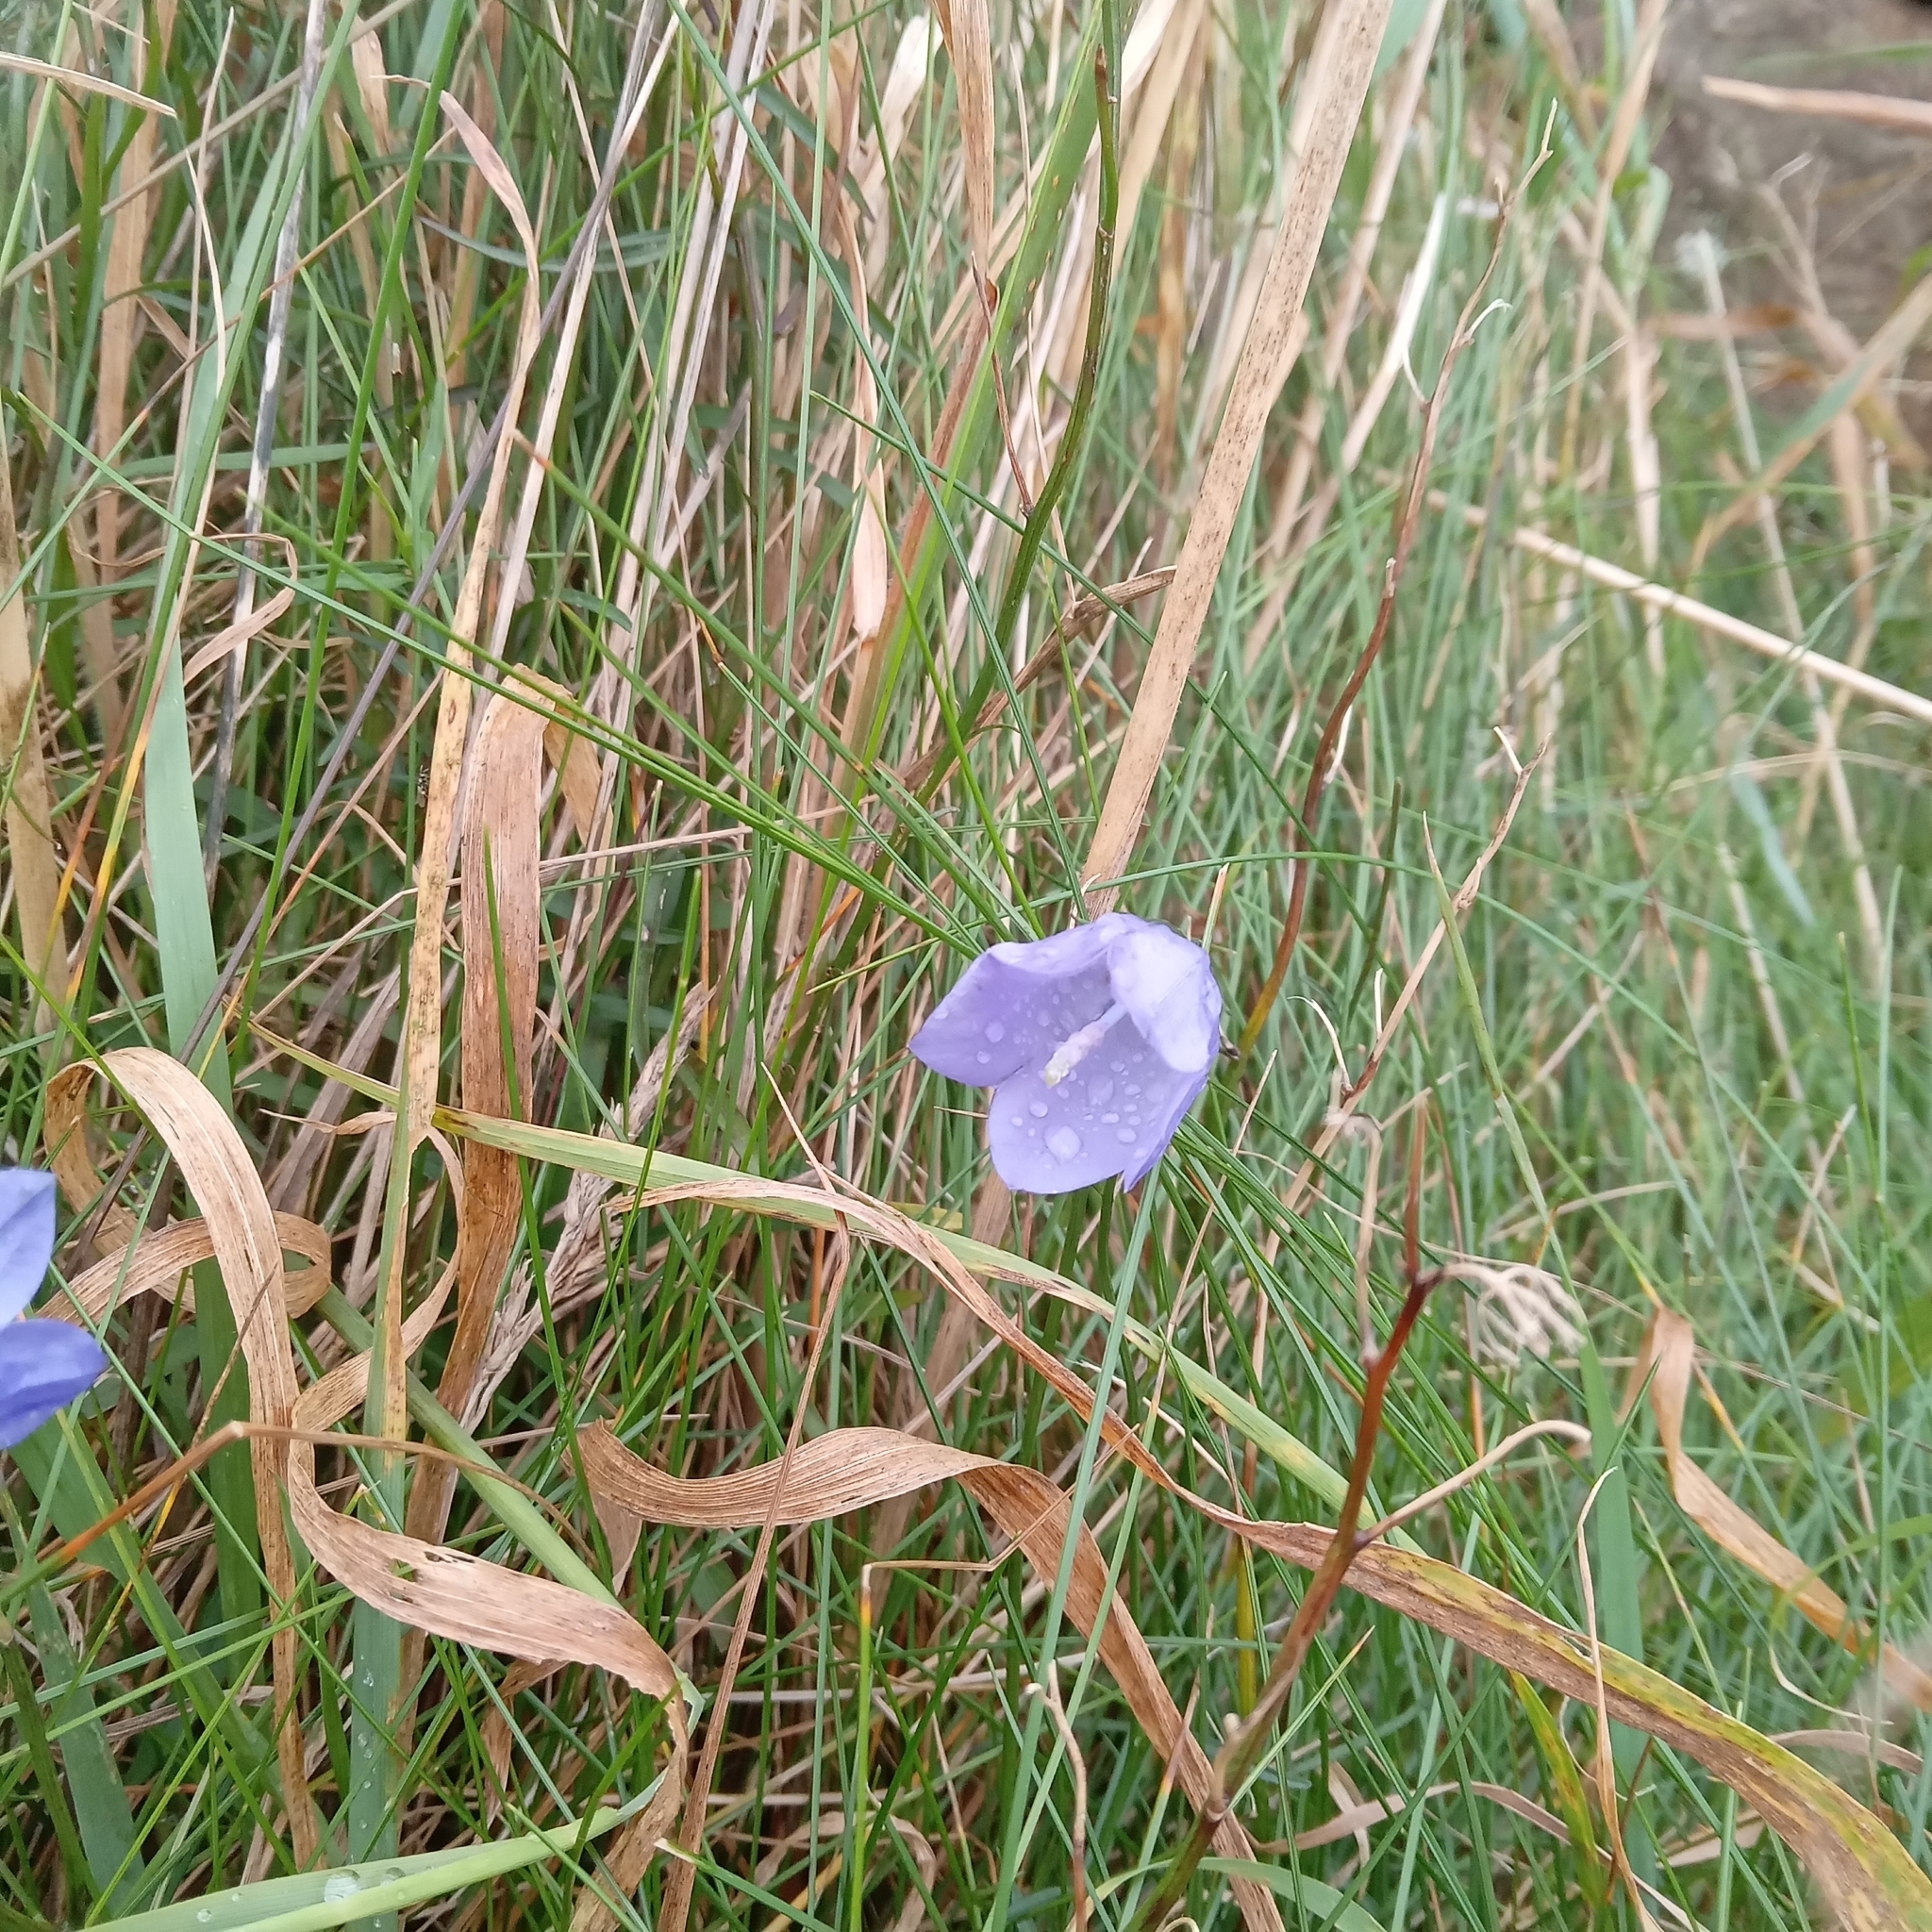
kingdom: Plantae
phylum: Tracheophyta
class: Magnoliopsida
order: Asterales
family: Campanulaceae
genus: Campanula
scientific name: Campanula rotundifolia
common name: Harebell
